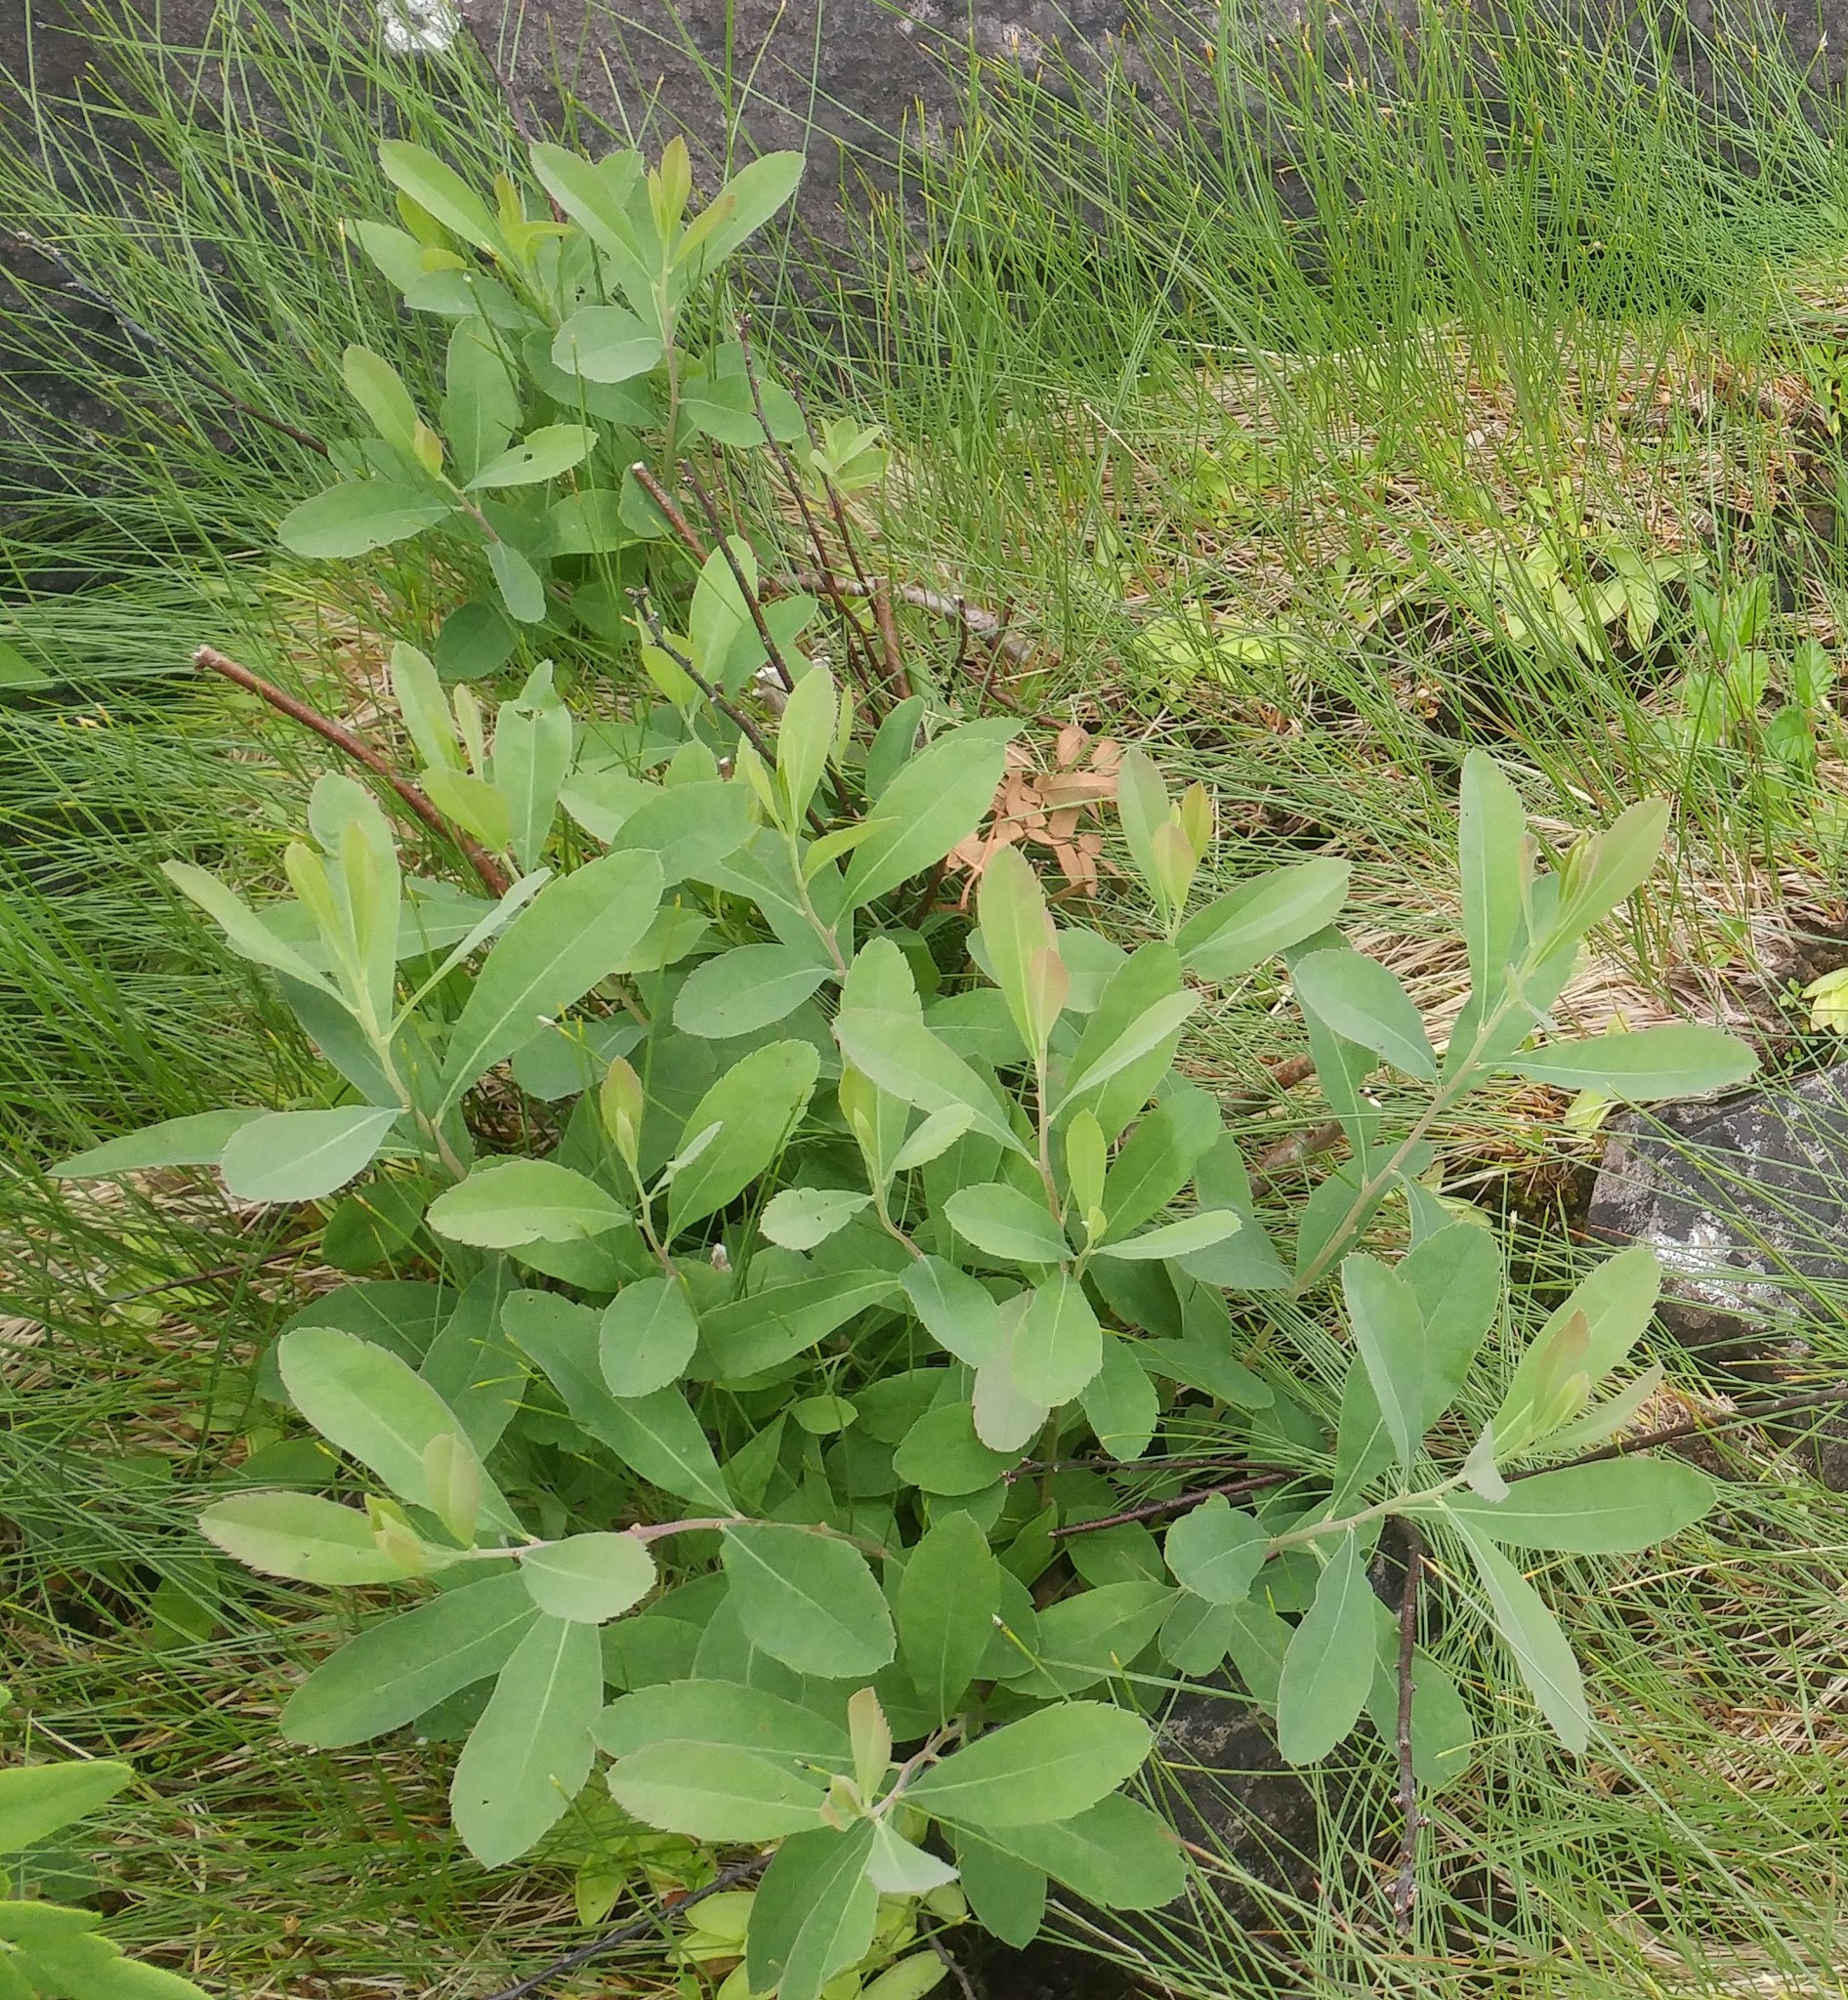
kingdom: Plantae
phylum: Tracheophyta
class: Magnoliopsida
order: Fagales
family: Myricaceae
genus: Myrica
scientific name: Myrica gale
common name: Sweet gale
